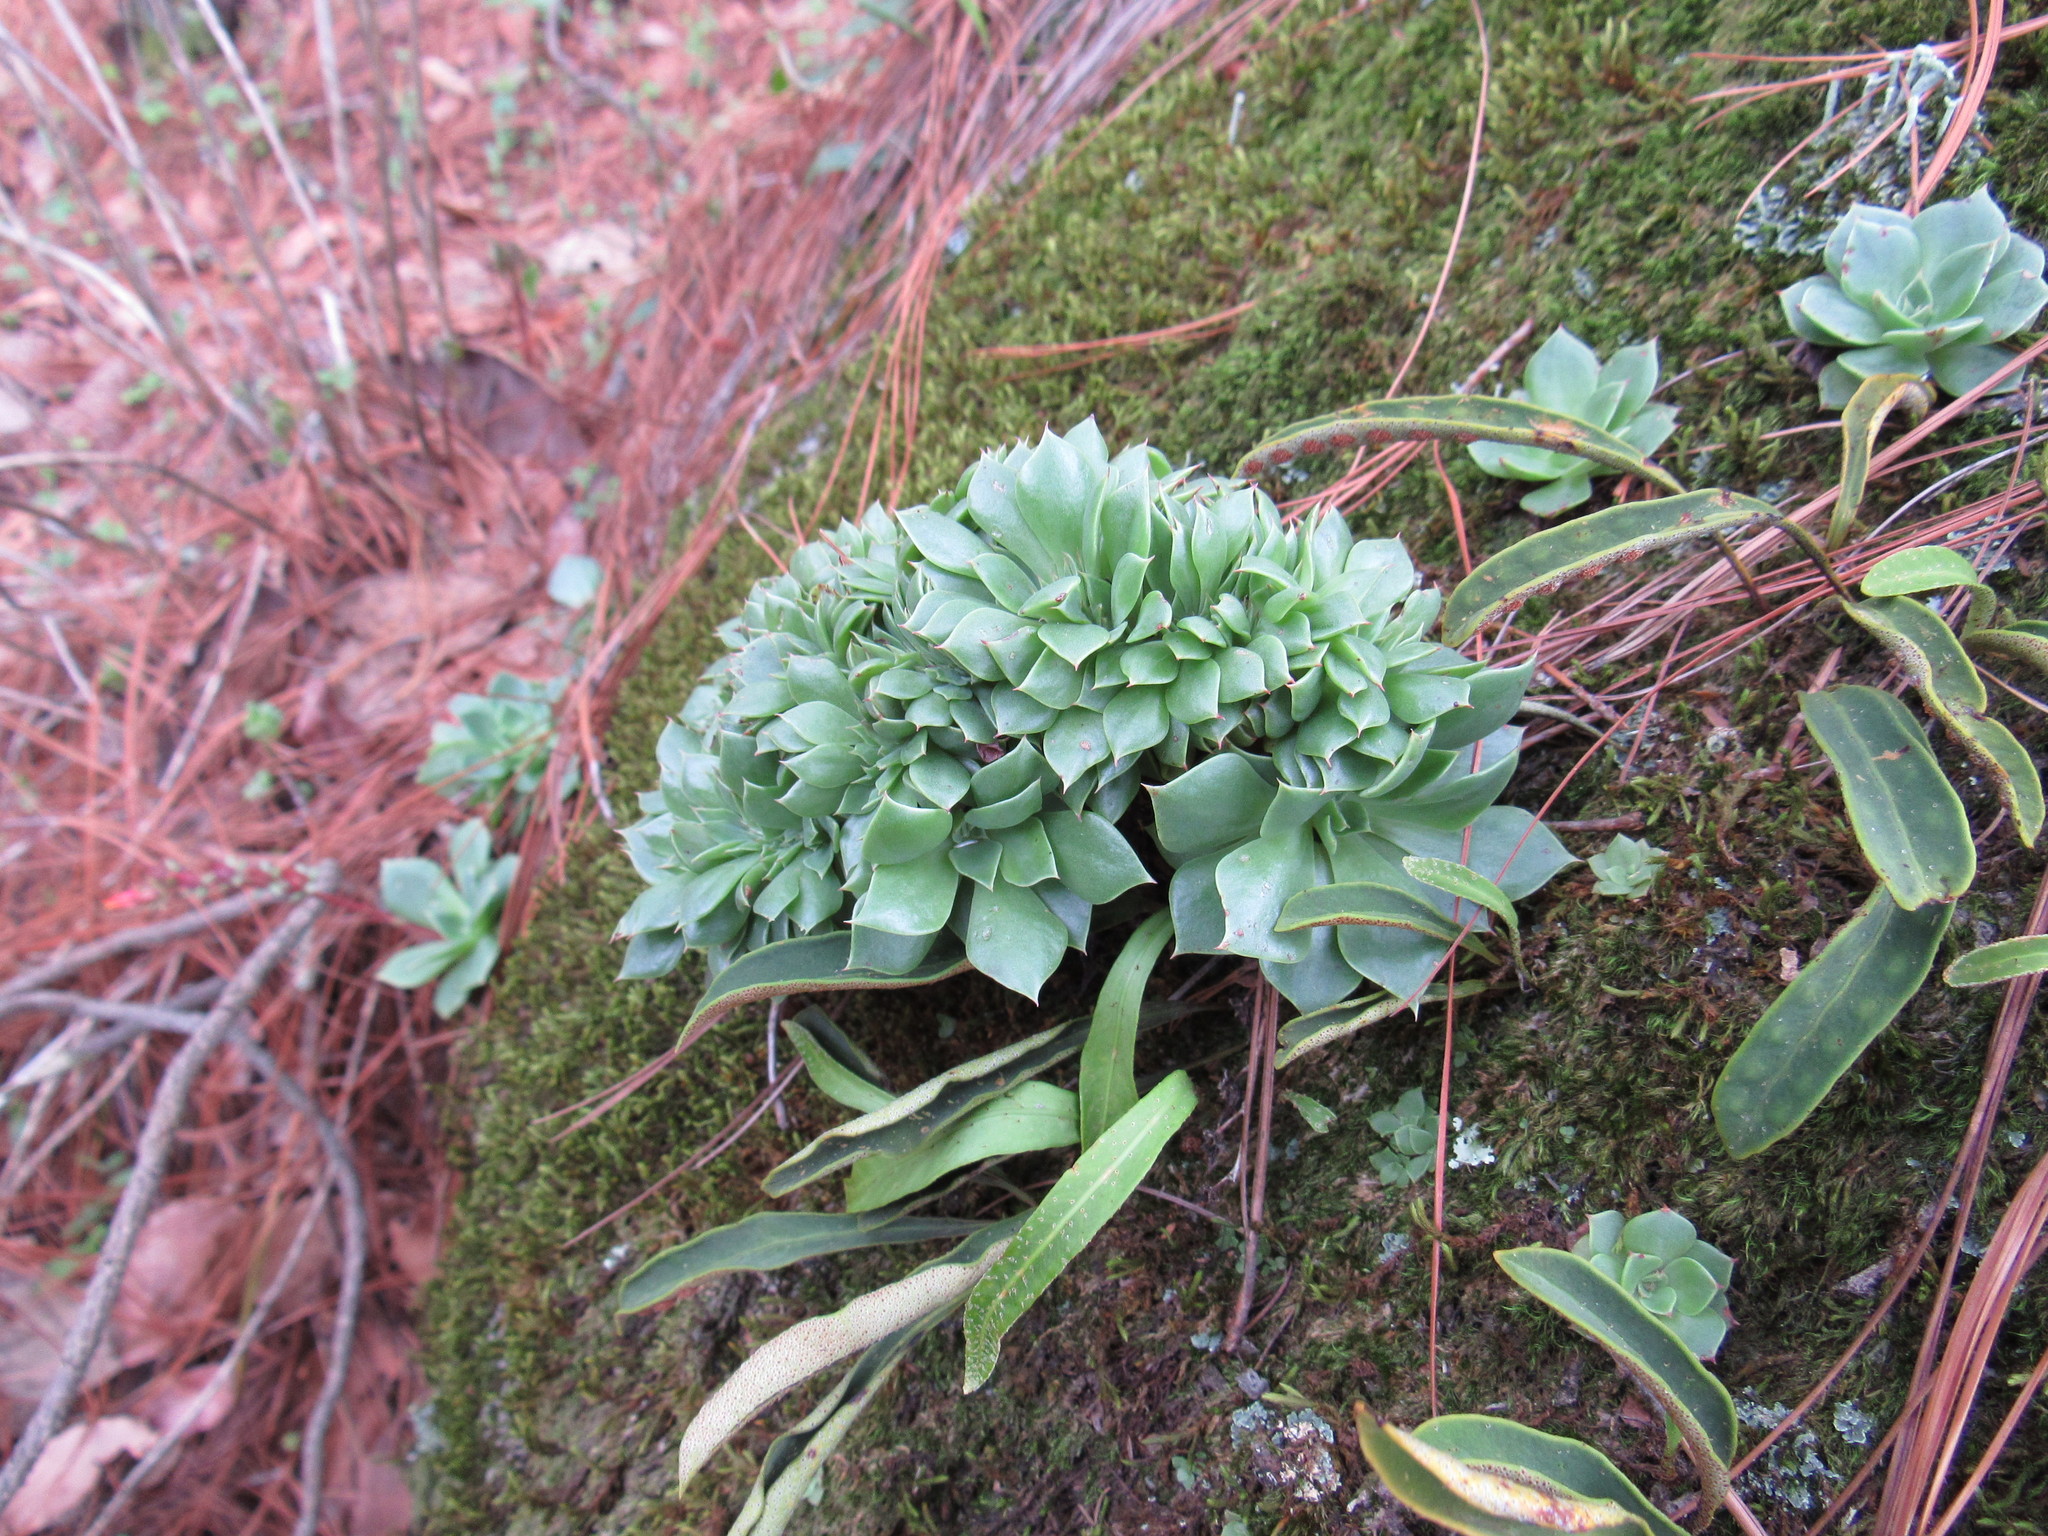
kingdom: Plantae
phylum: Tracheophyta
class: Magnoliopsida
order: Saxifragales
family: Crassulaceae
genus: Echeveria
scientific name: Echeveria secunda
